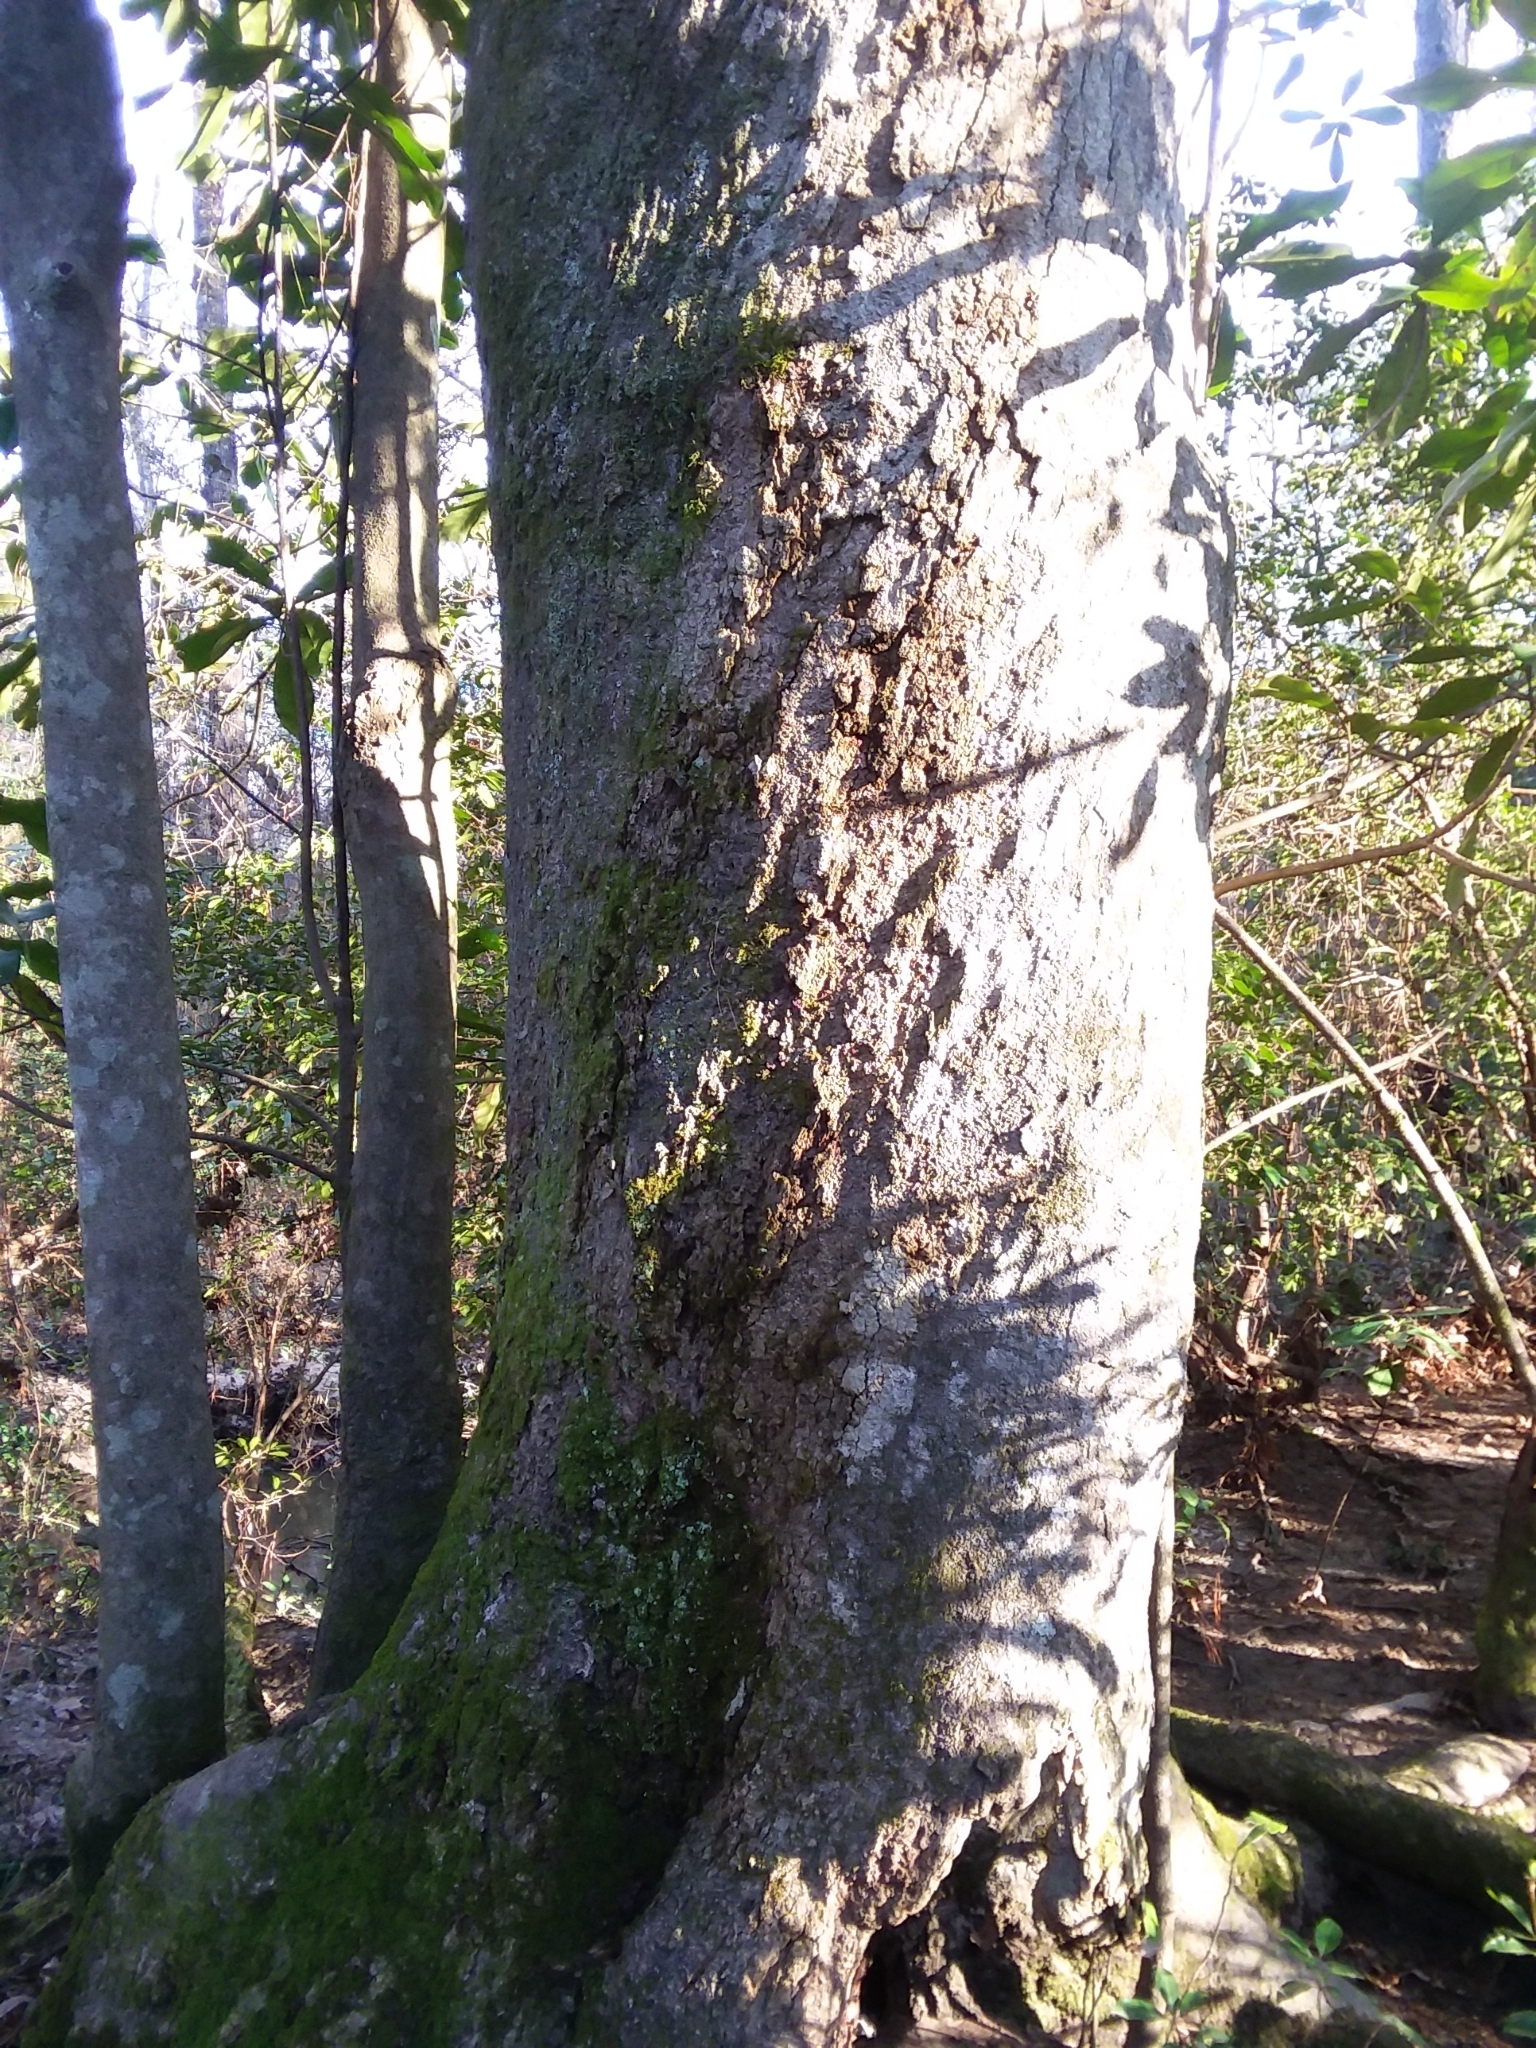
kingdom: Plantae
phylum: Tracheophyta
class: Magnoliopsida
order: Magnoliales
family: Magnoliaceae
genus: Magnolia
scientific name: Magnolia grandiflora
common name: Southern magnolia
